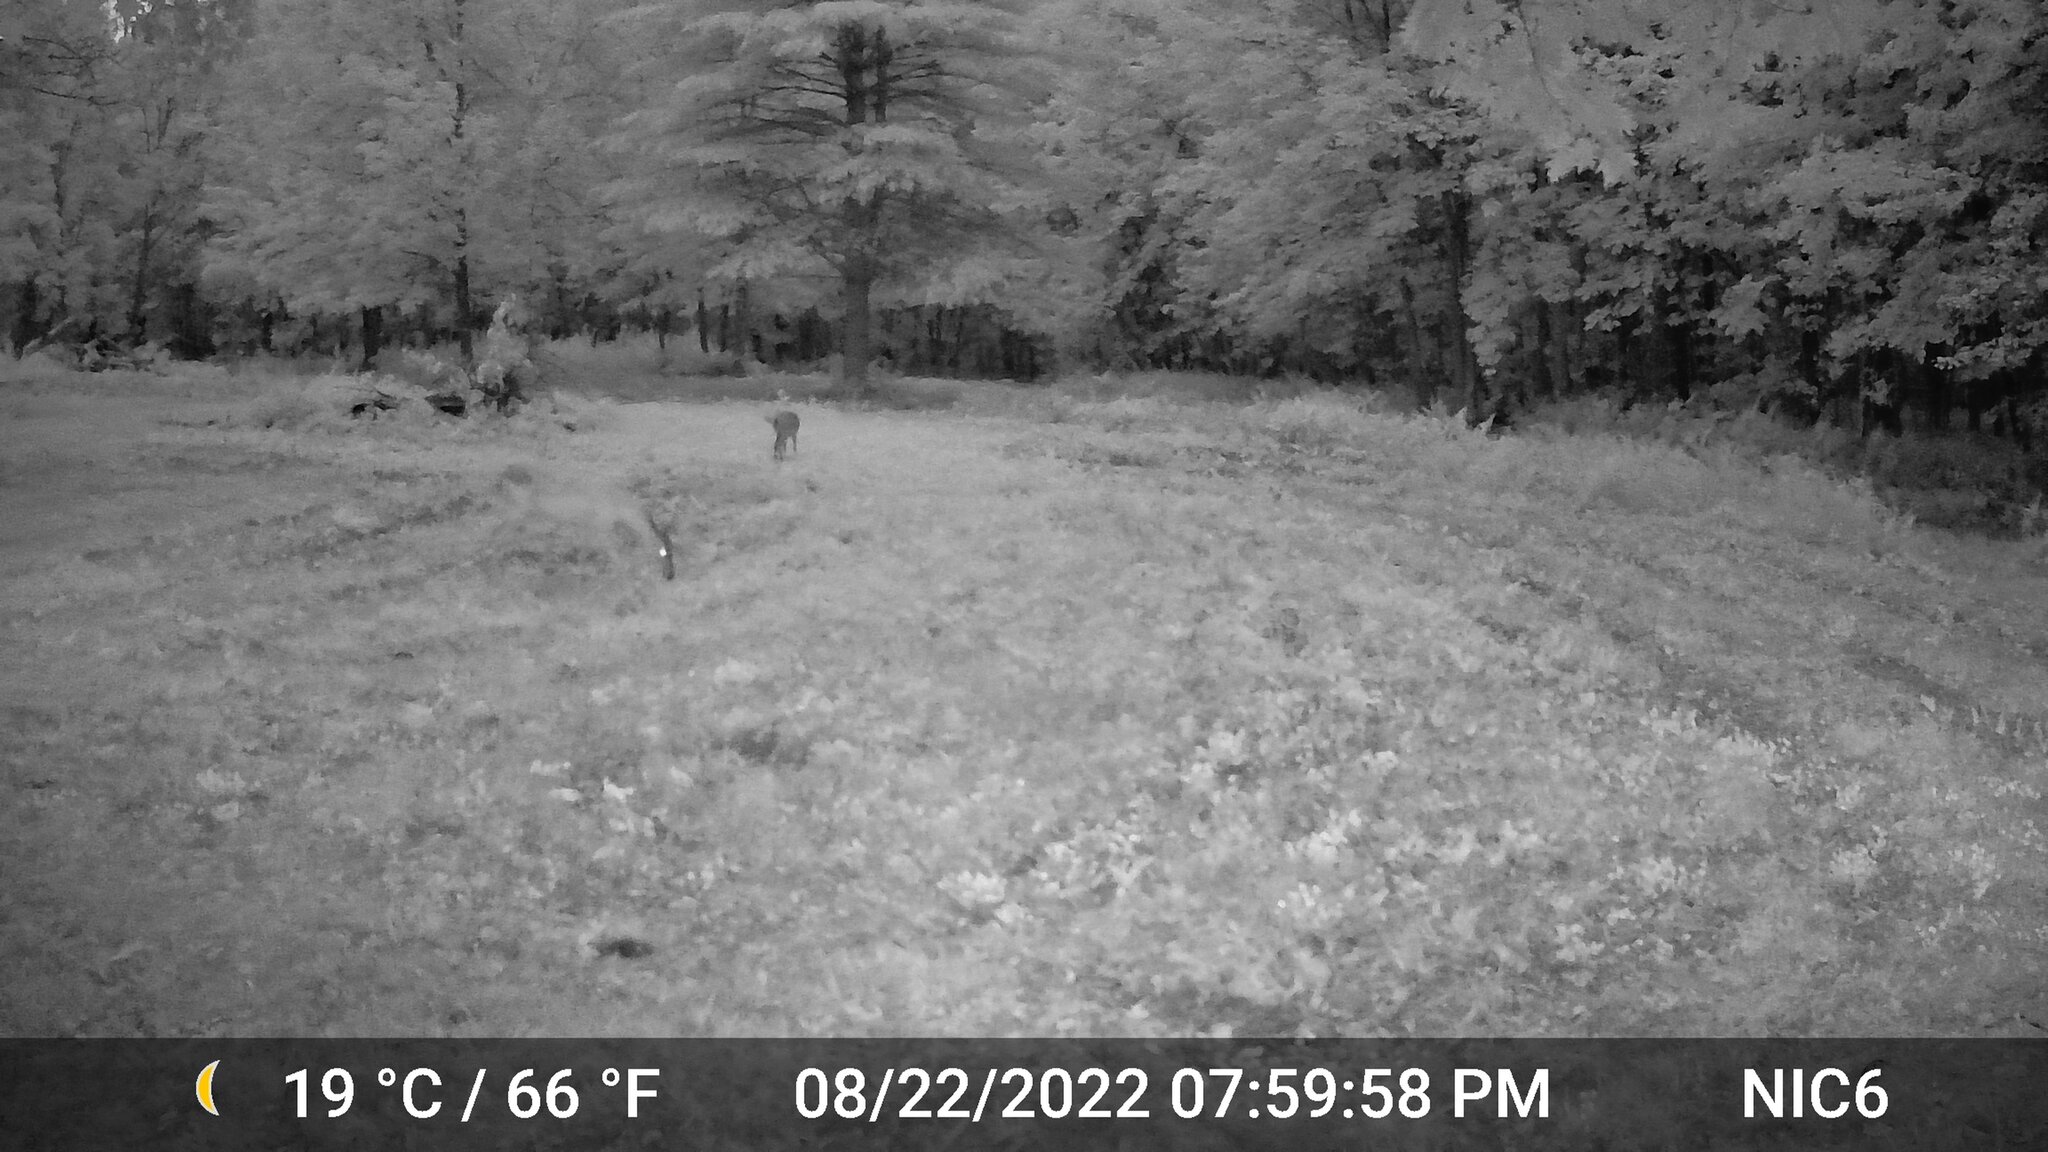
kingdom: Animalia
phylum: Chordata
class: Mammalia
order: Artiodactyla
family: Cervidae
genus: Odocoileus
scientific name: Odocoileus virginianus
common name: White-tailed deer
